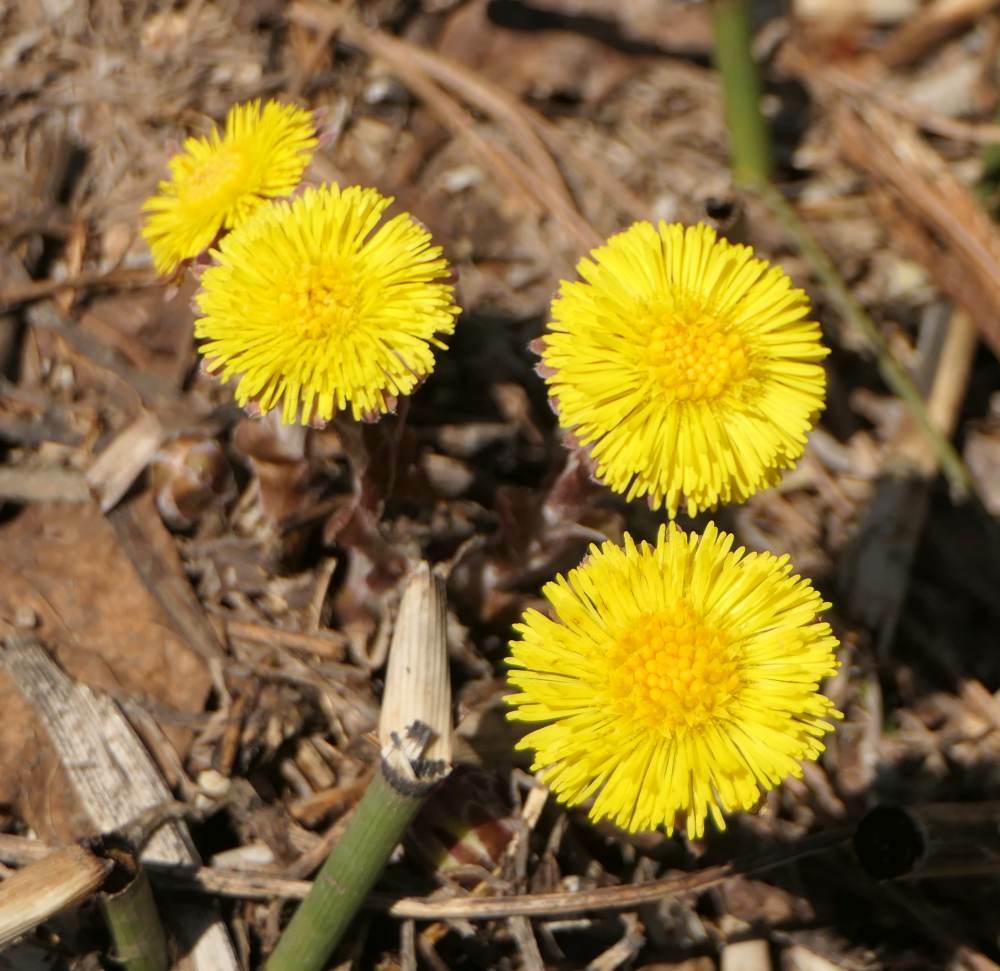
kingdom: Plantae
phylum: Tracheophyta
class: Magnoliopsida
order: Asterales
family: Asteraceae
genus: Tussilago
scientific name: Tussilago farfara
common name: Coltsfoot
